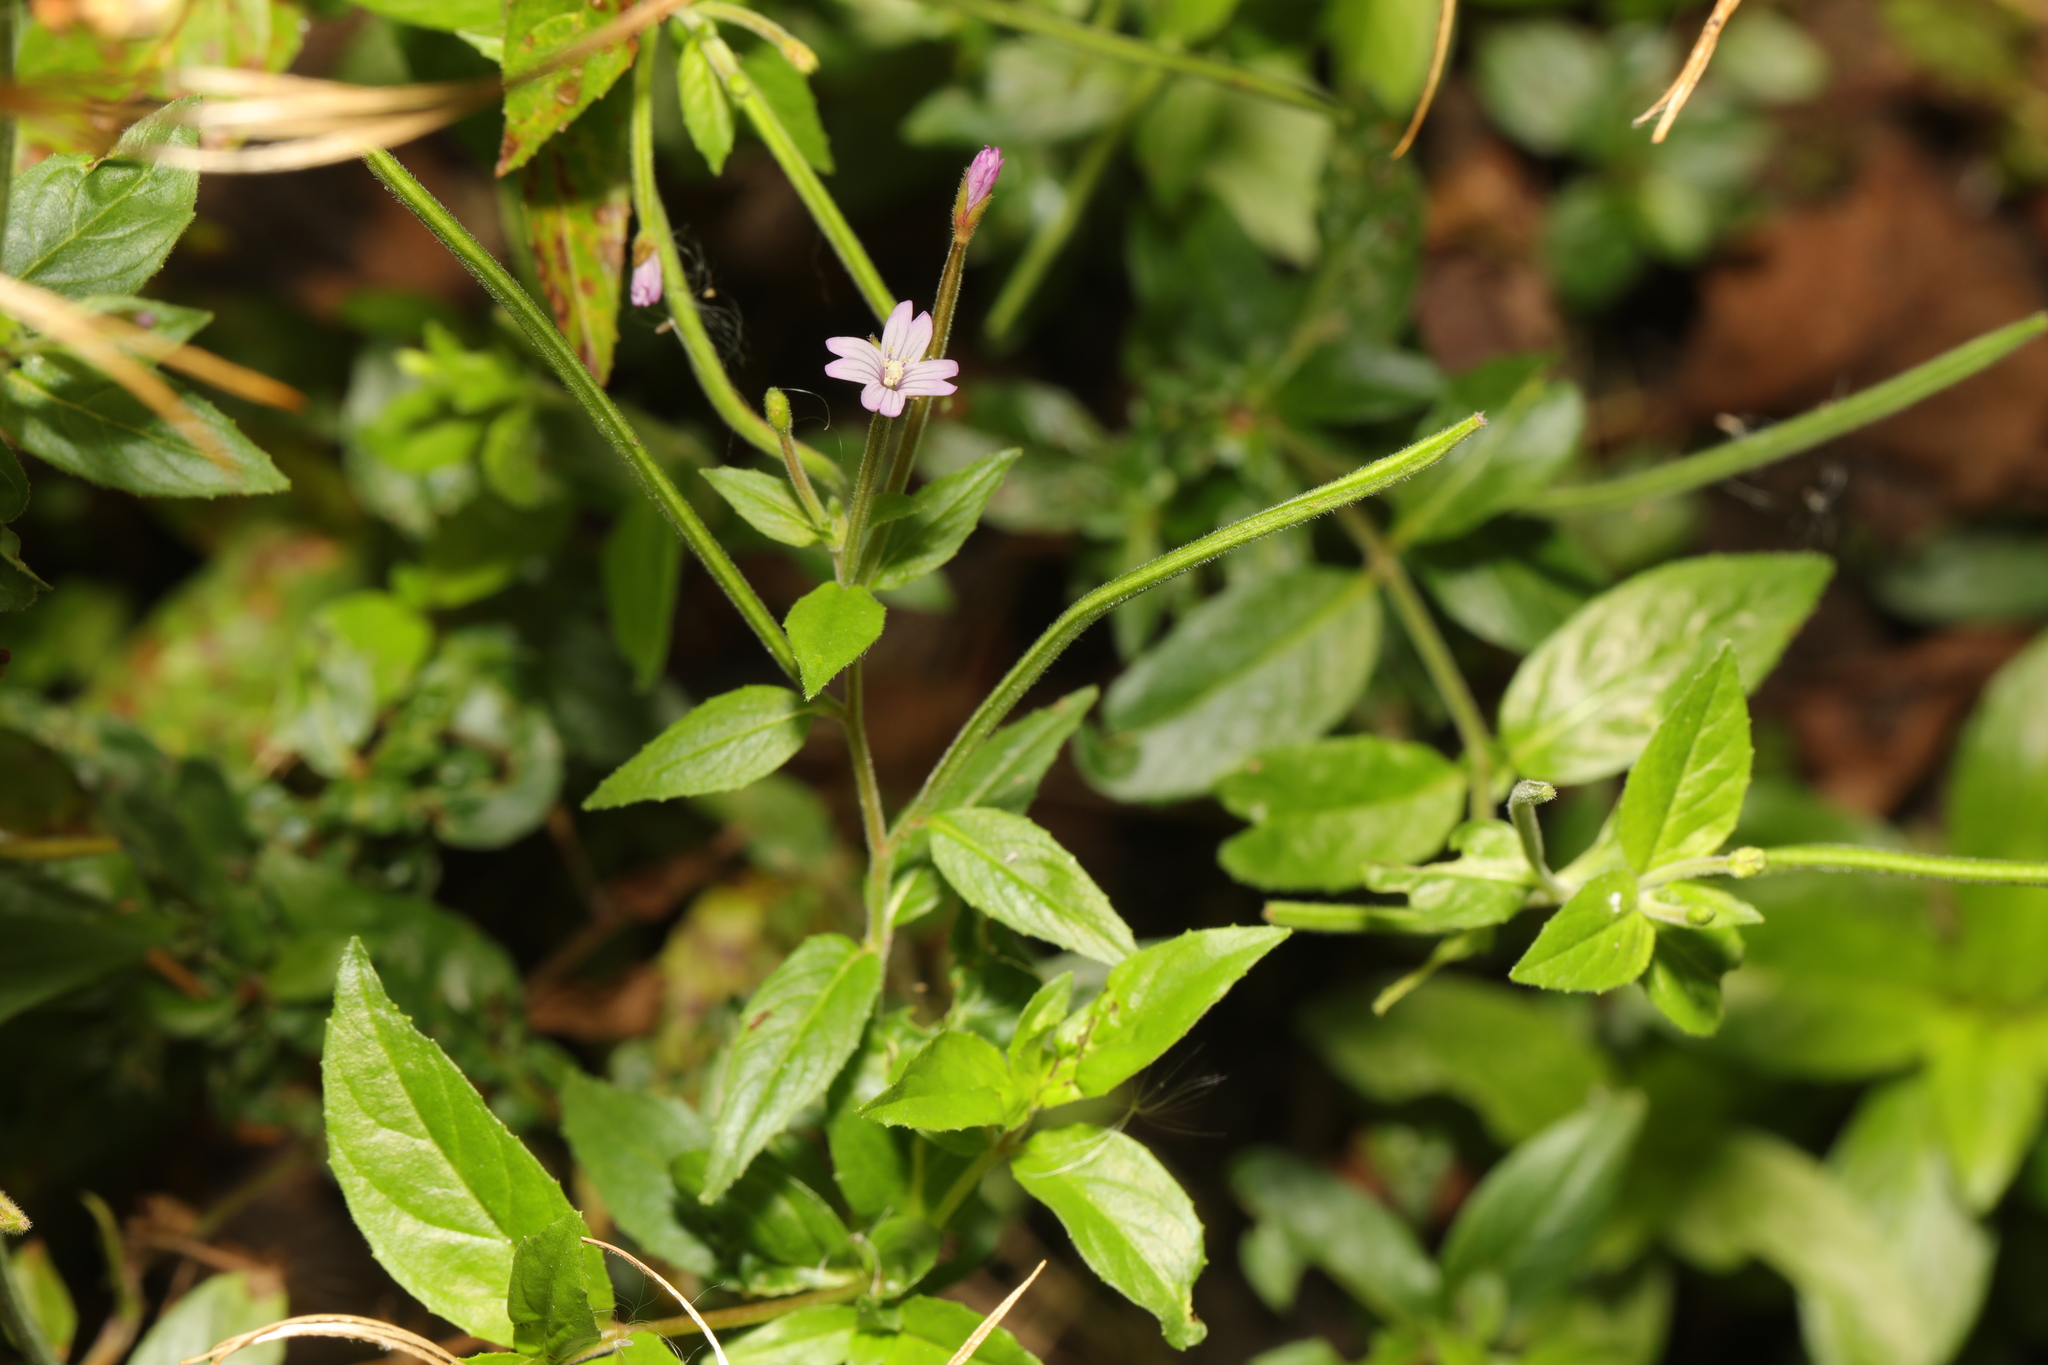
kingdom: Plantae
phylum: Tracheophyta
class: Magnoliopsida
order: Myrtales
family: Onagraceae
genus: Epilobium
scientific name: Epilobium ciliatum
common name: American willowherb
